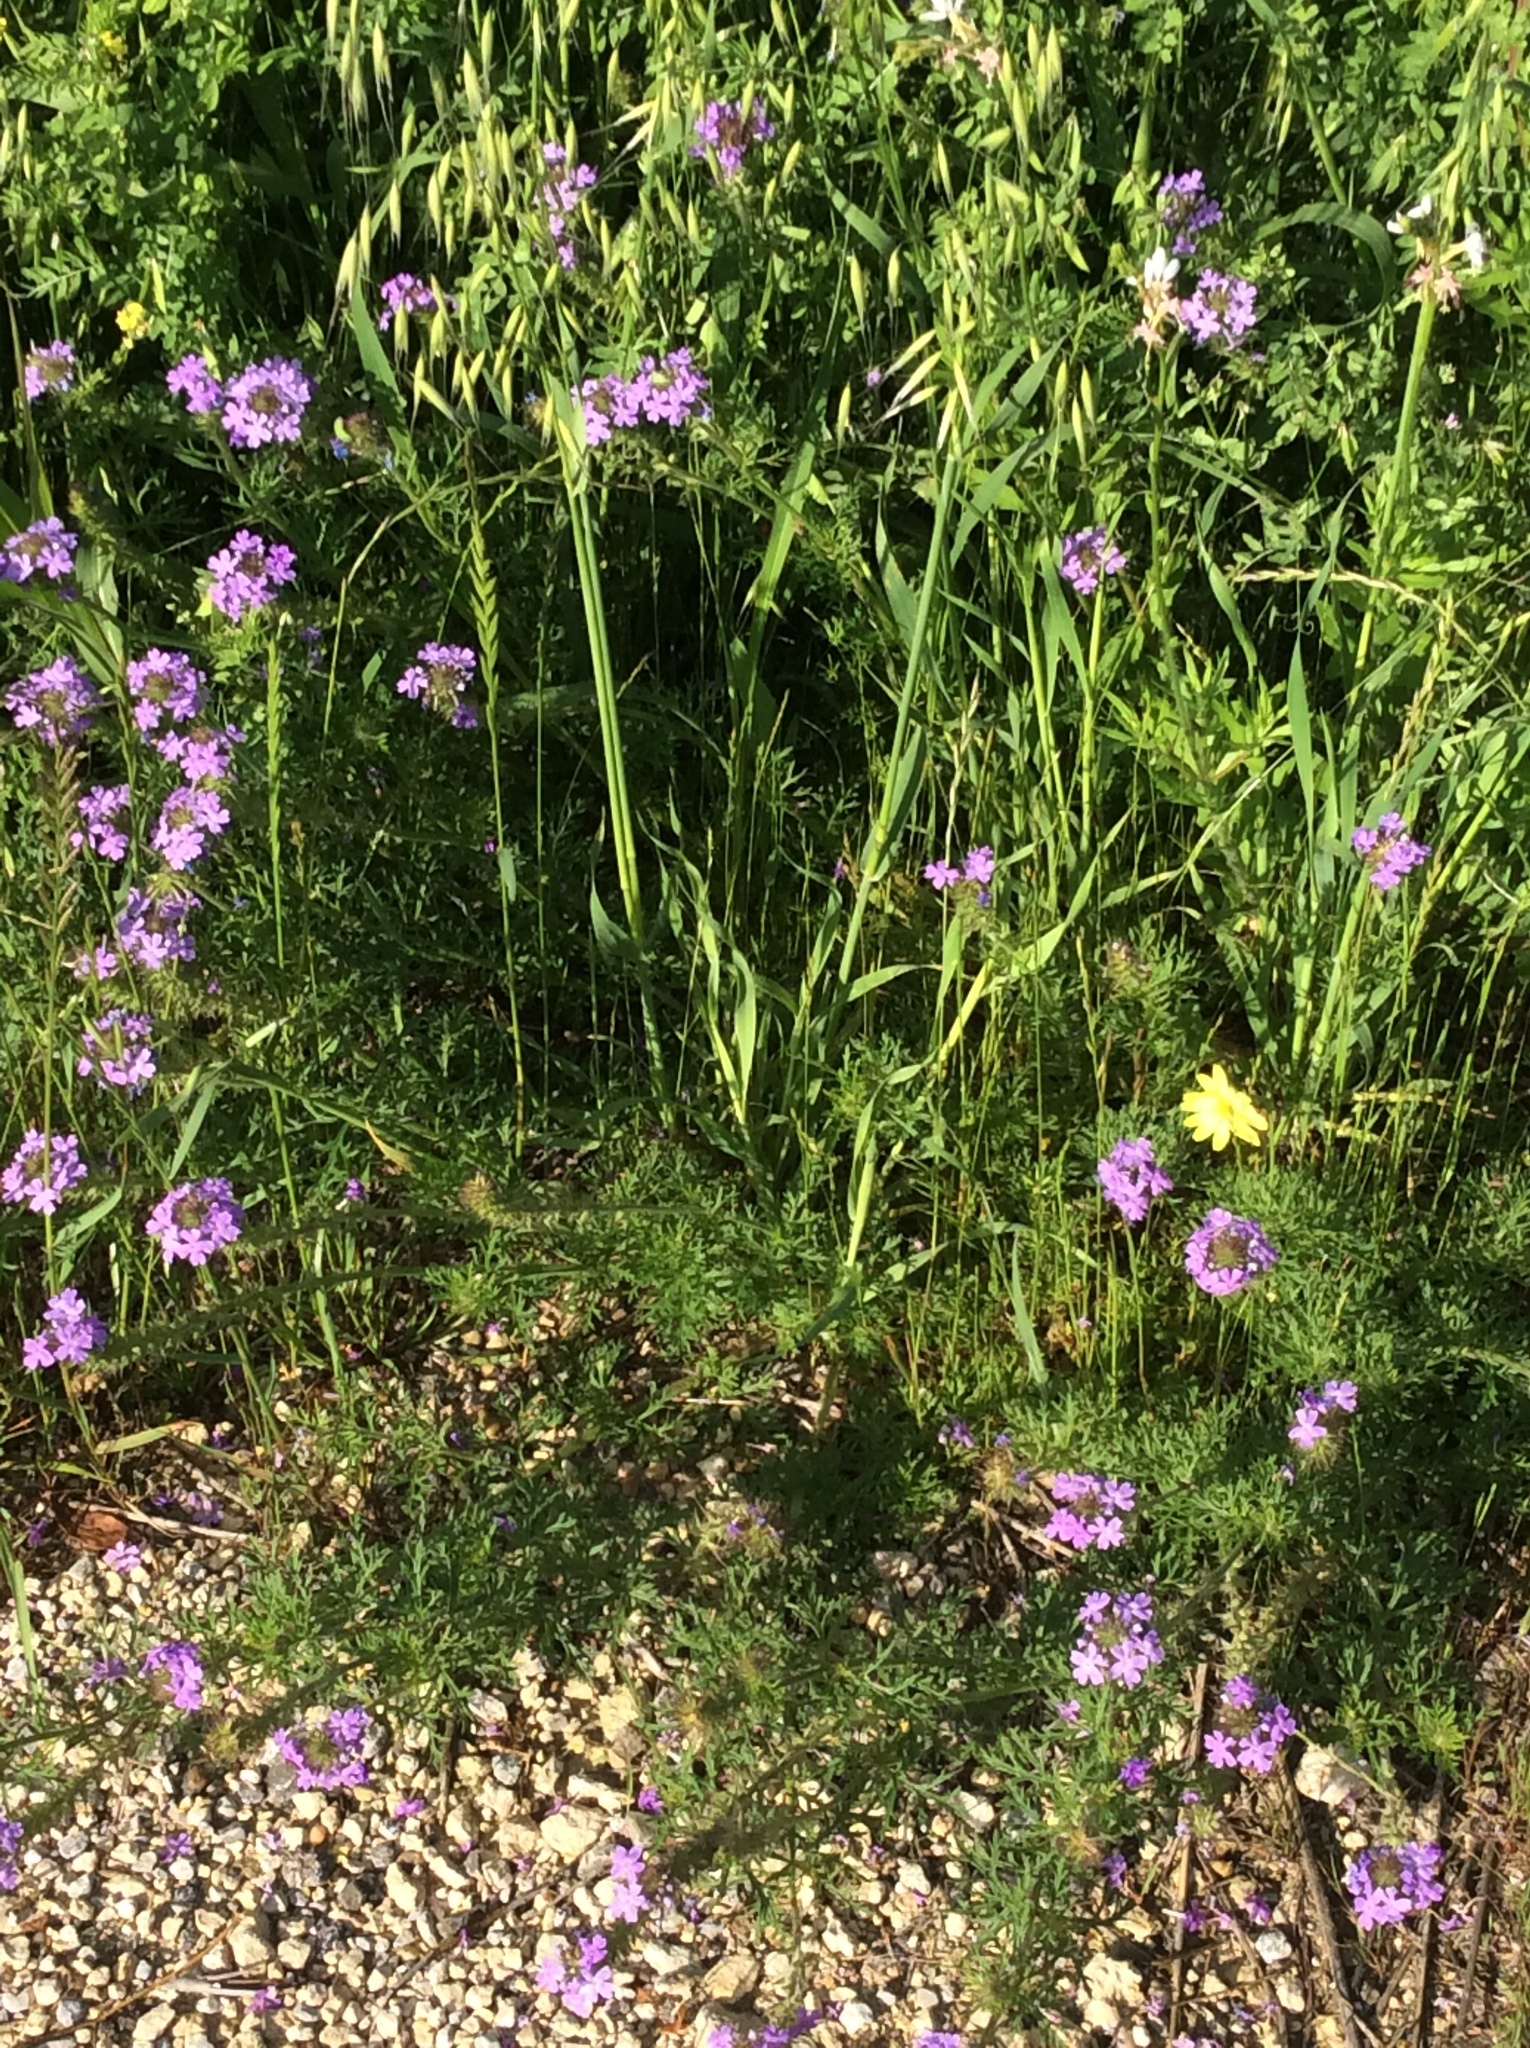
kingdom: Plantae
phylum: Tracheophyta
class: Magnoliopsida
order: Lamiales
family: Verbenaceae
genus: Verbena
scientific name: Verbena bipinnatifida
